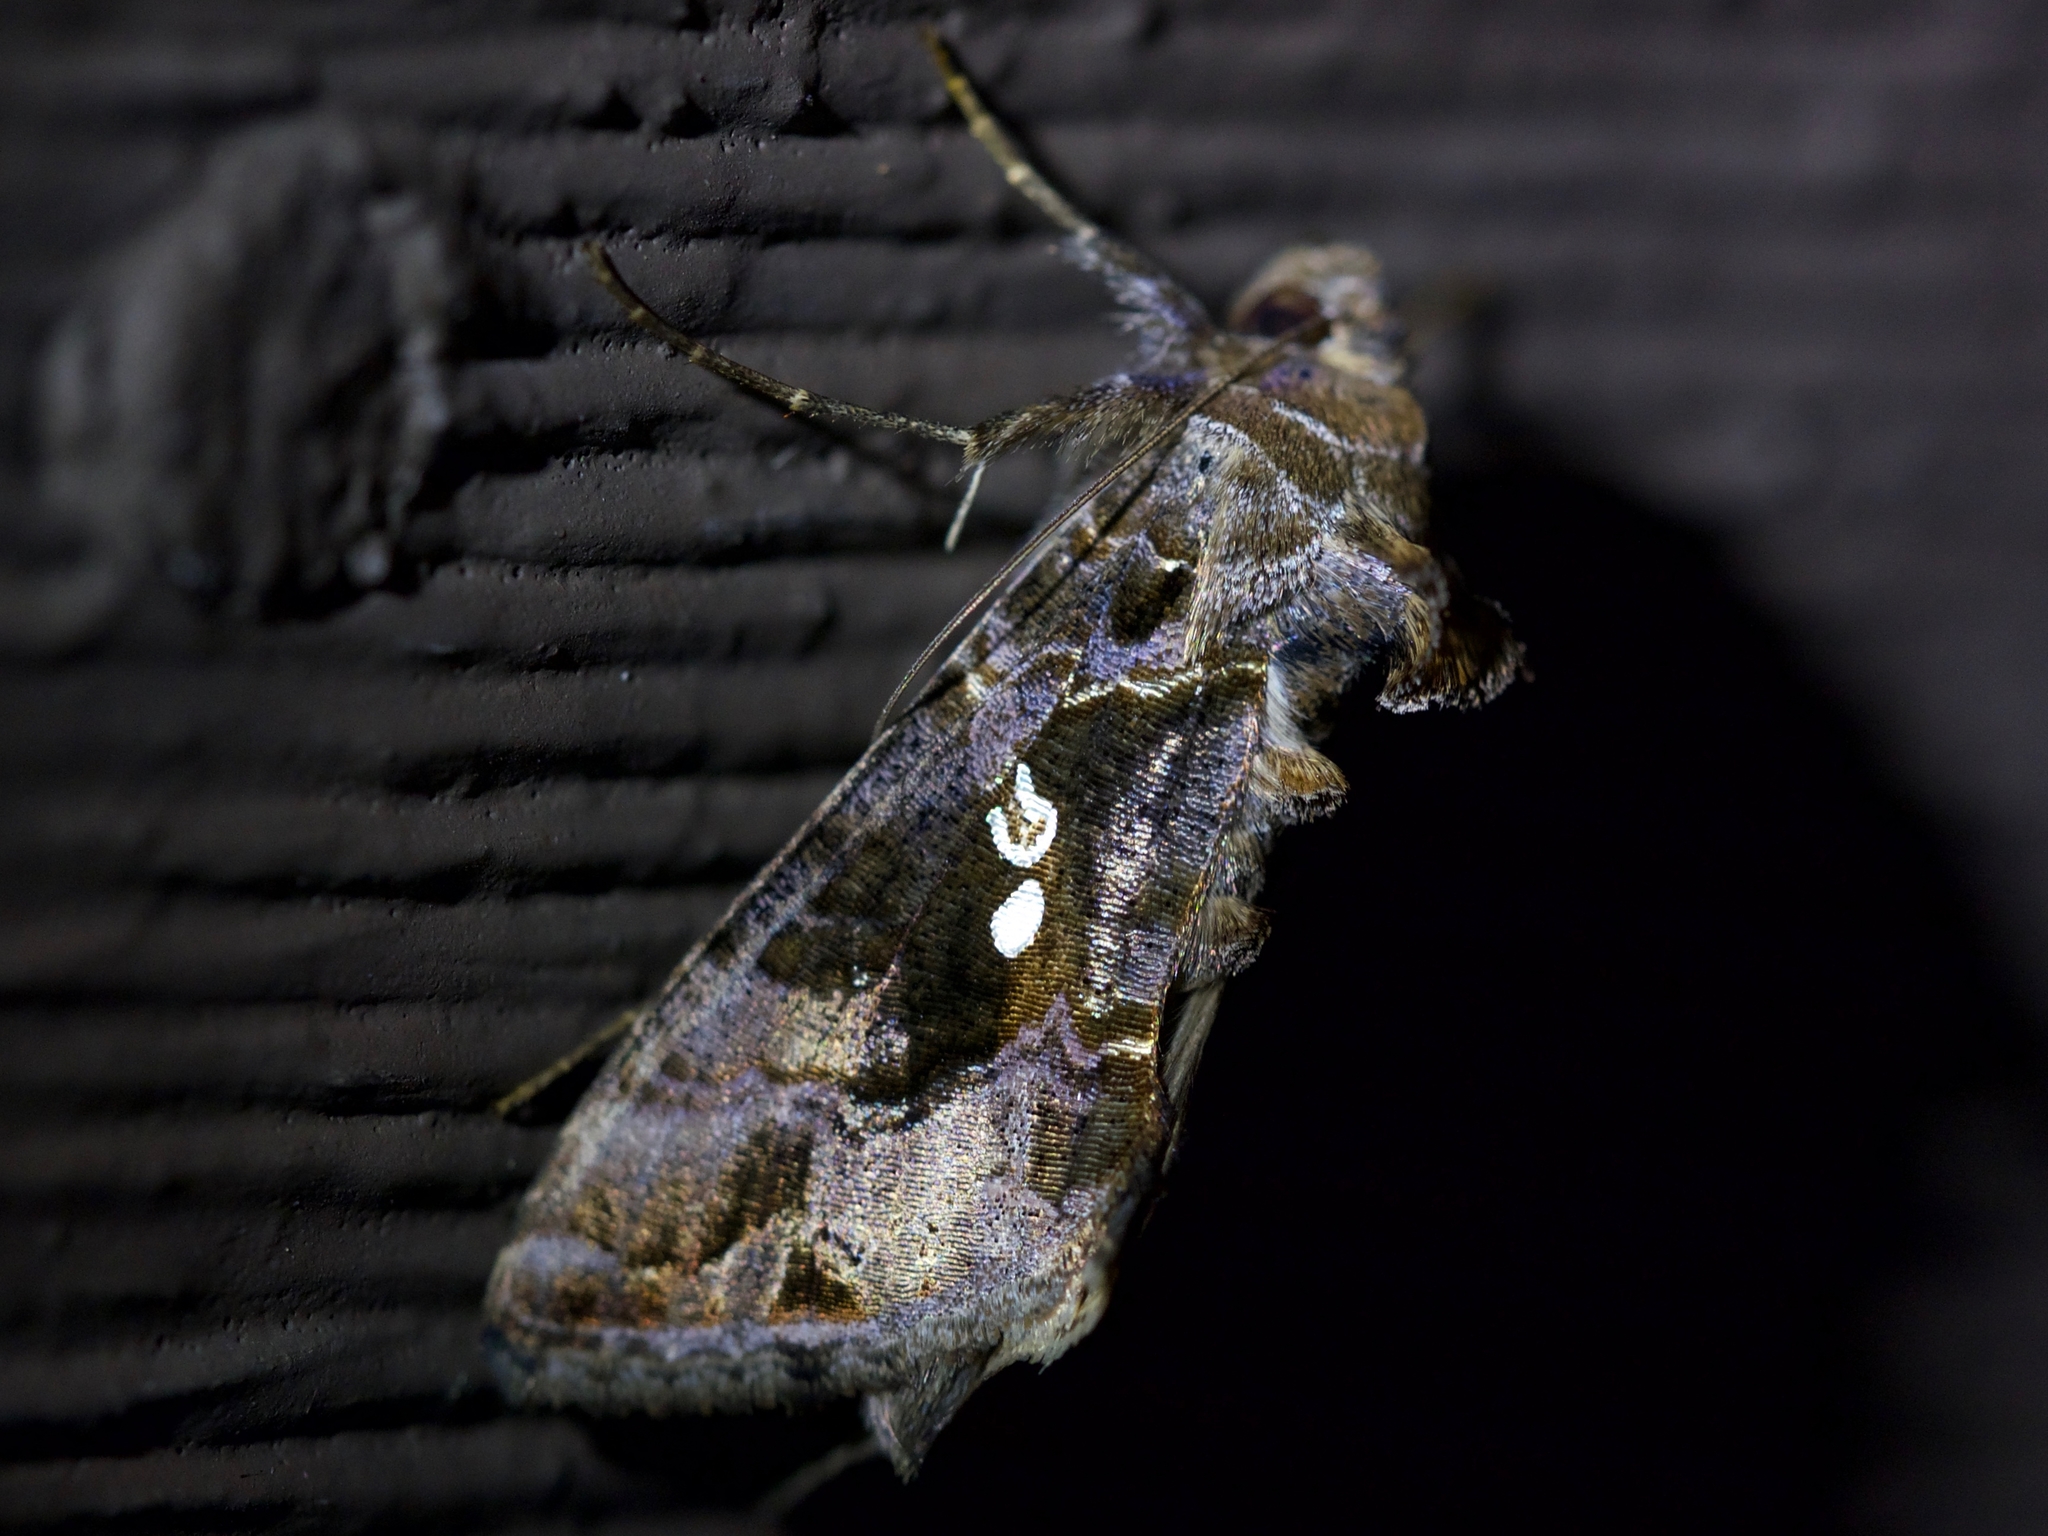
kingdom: Animalia
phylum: Arthropoda
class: Insecta
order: Lepidoptera
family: Noctuidae
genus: Chrysodeixis
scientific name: Chrysodeixis includens
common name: Cutworm moth
